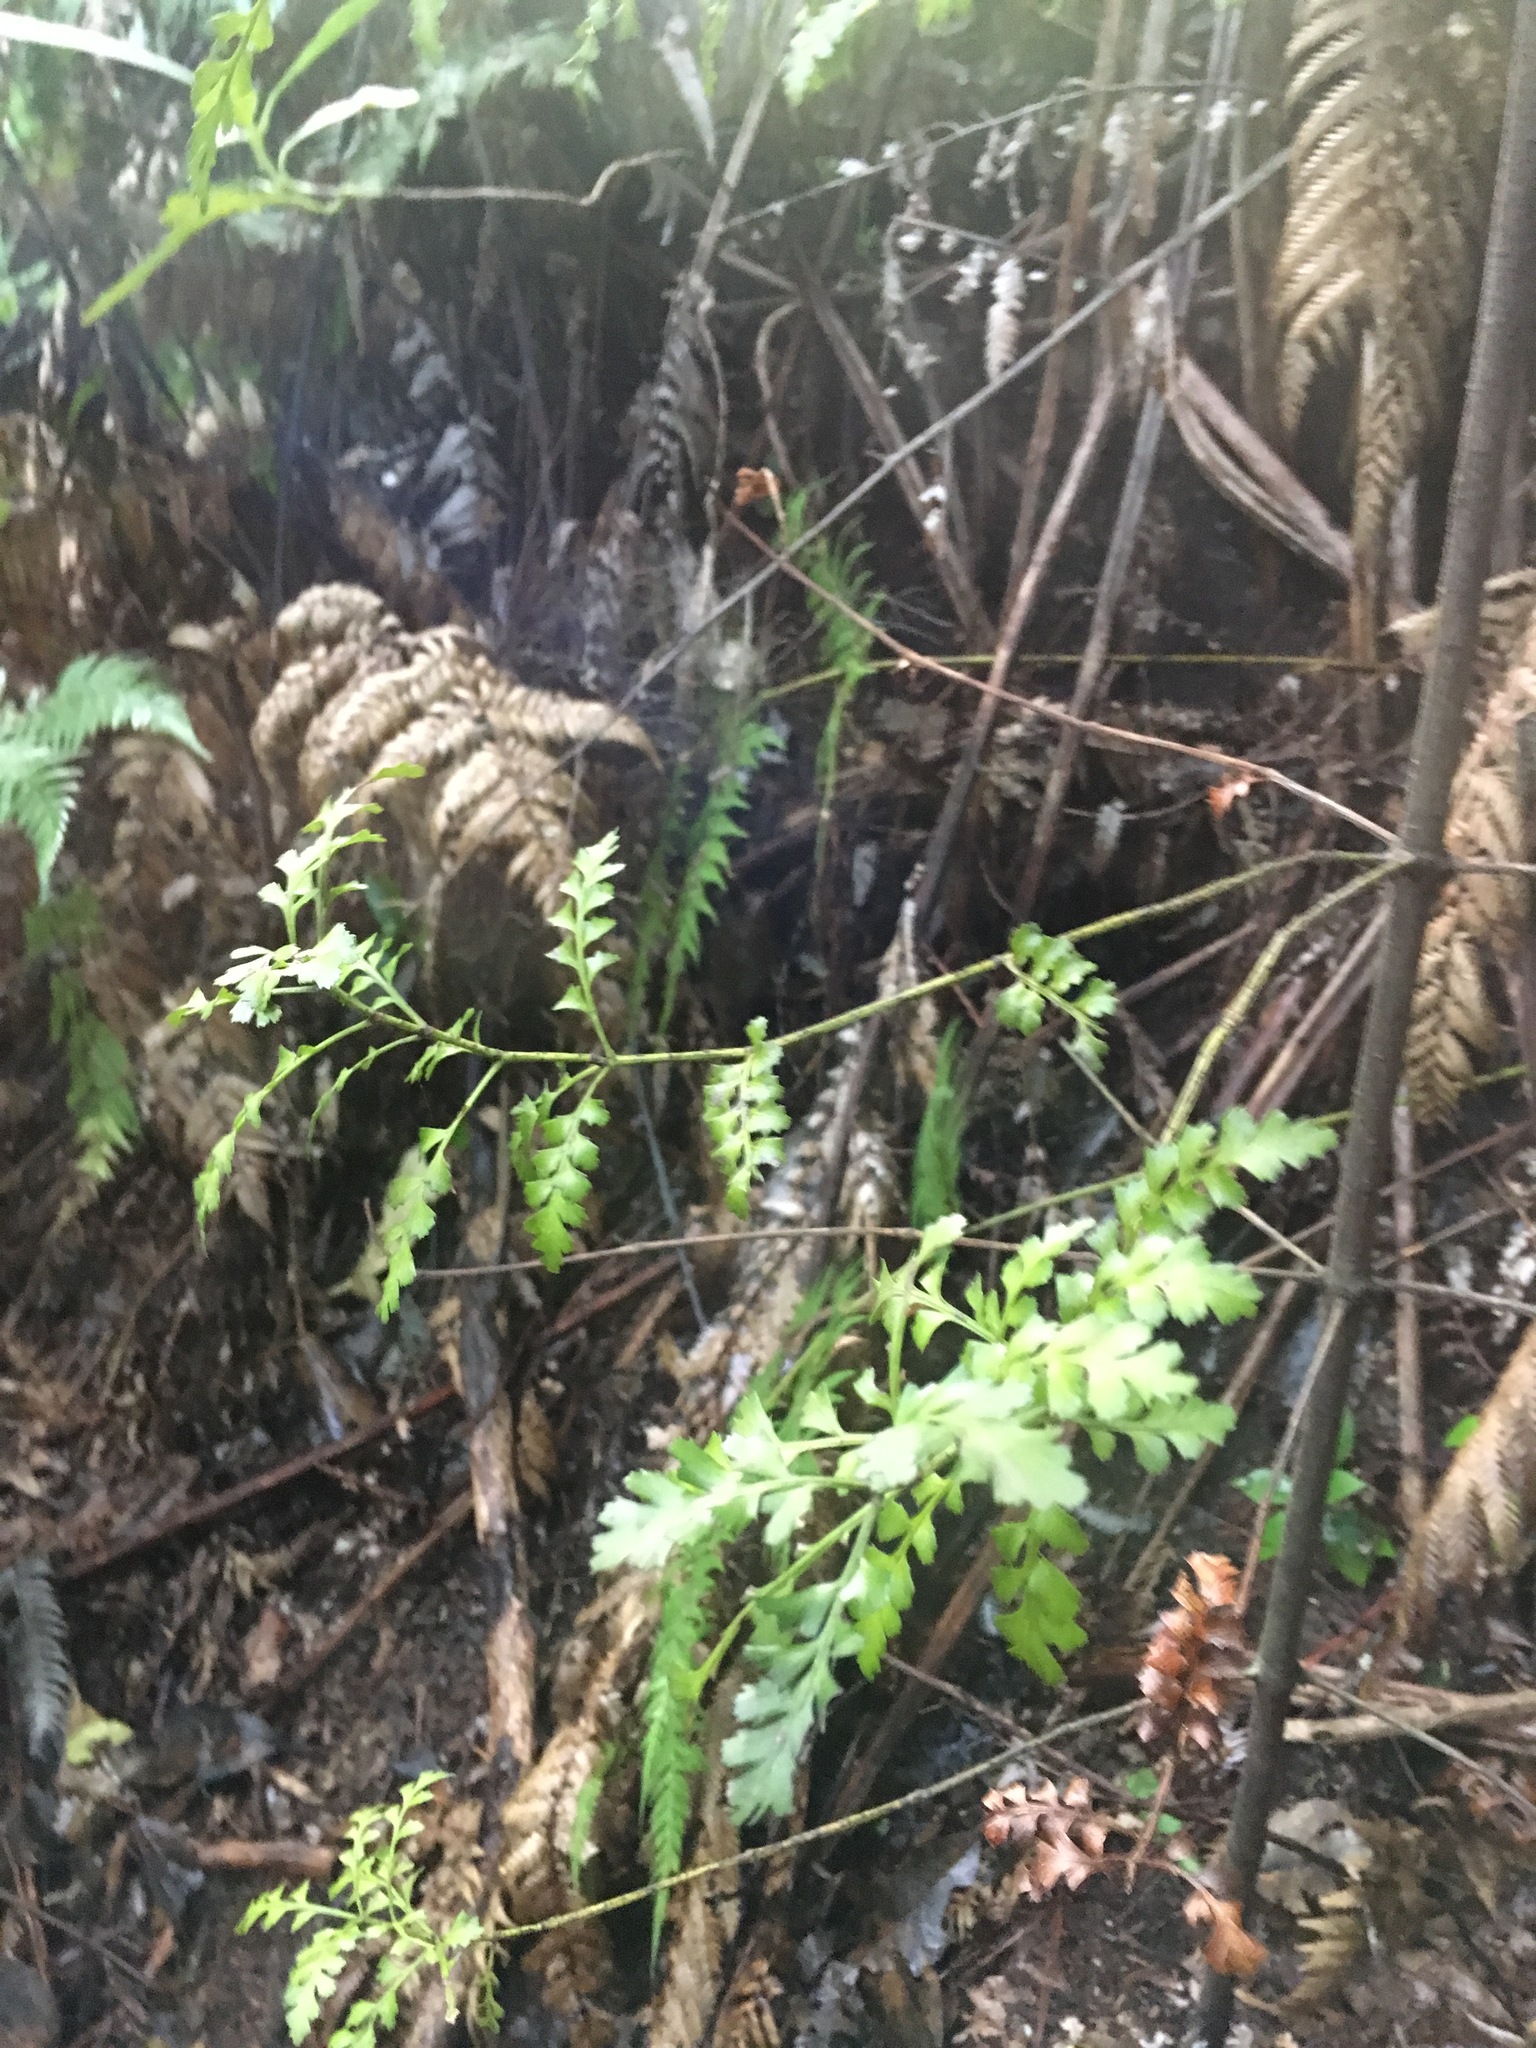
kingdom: Plantae
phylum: Tracheophyta
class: Pinopsida
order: Pinales
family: Phyllocladaceae
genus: Phyllocladus
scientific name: Phyllocladus trichomanoides
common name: Celery pine
